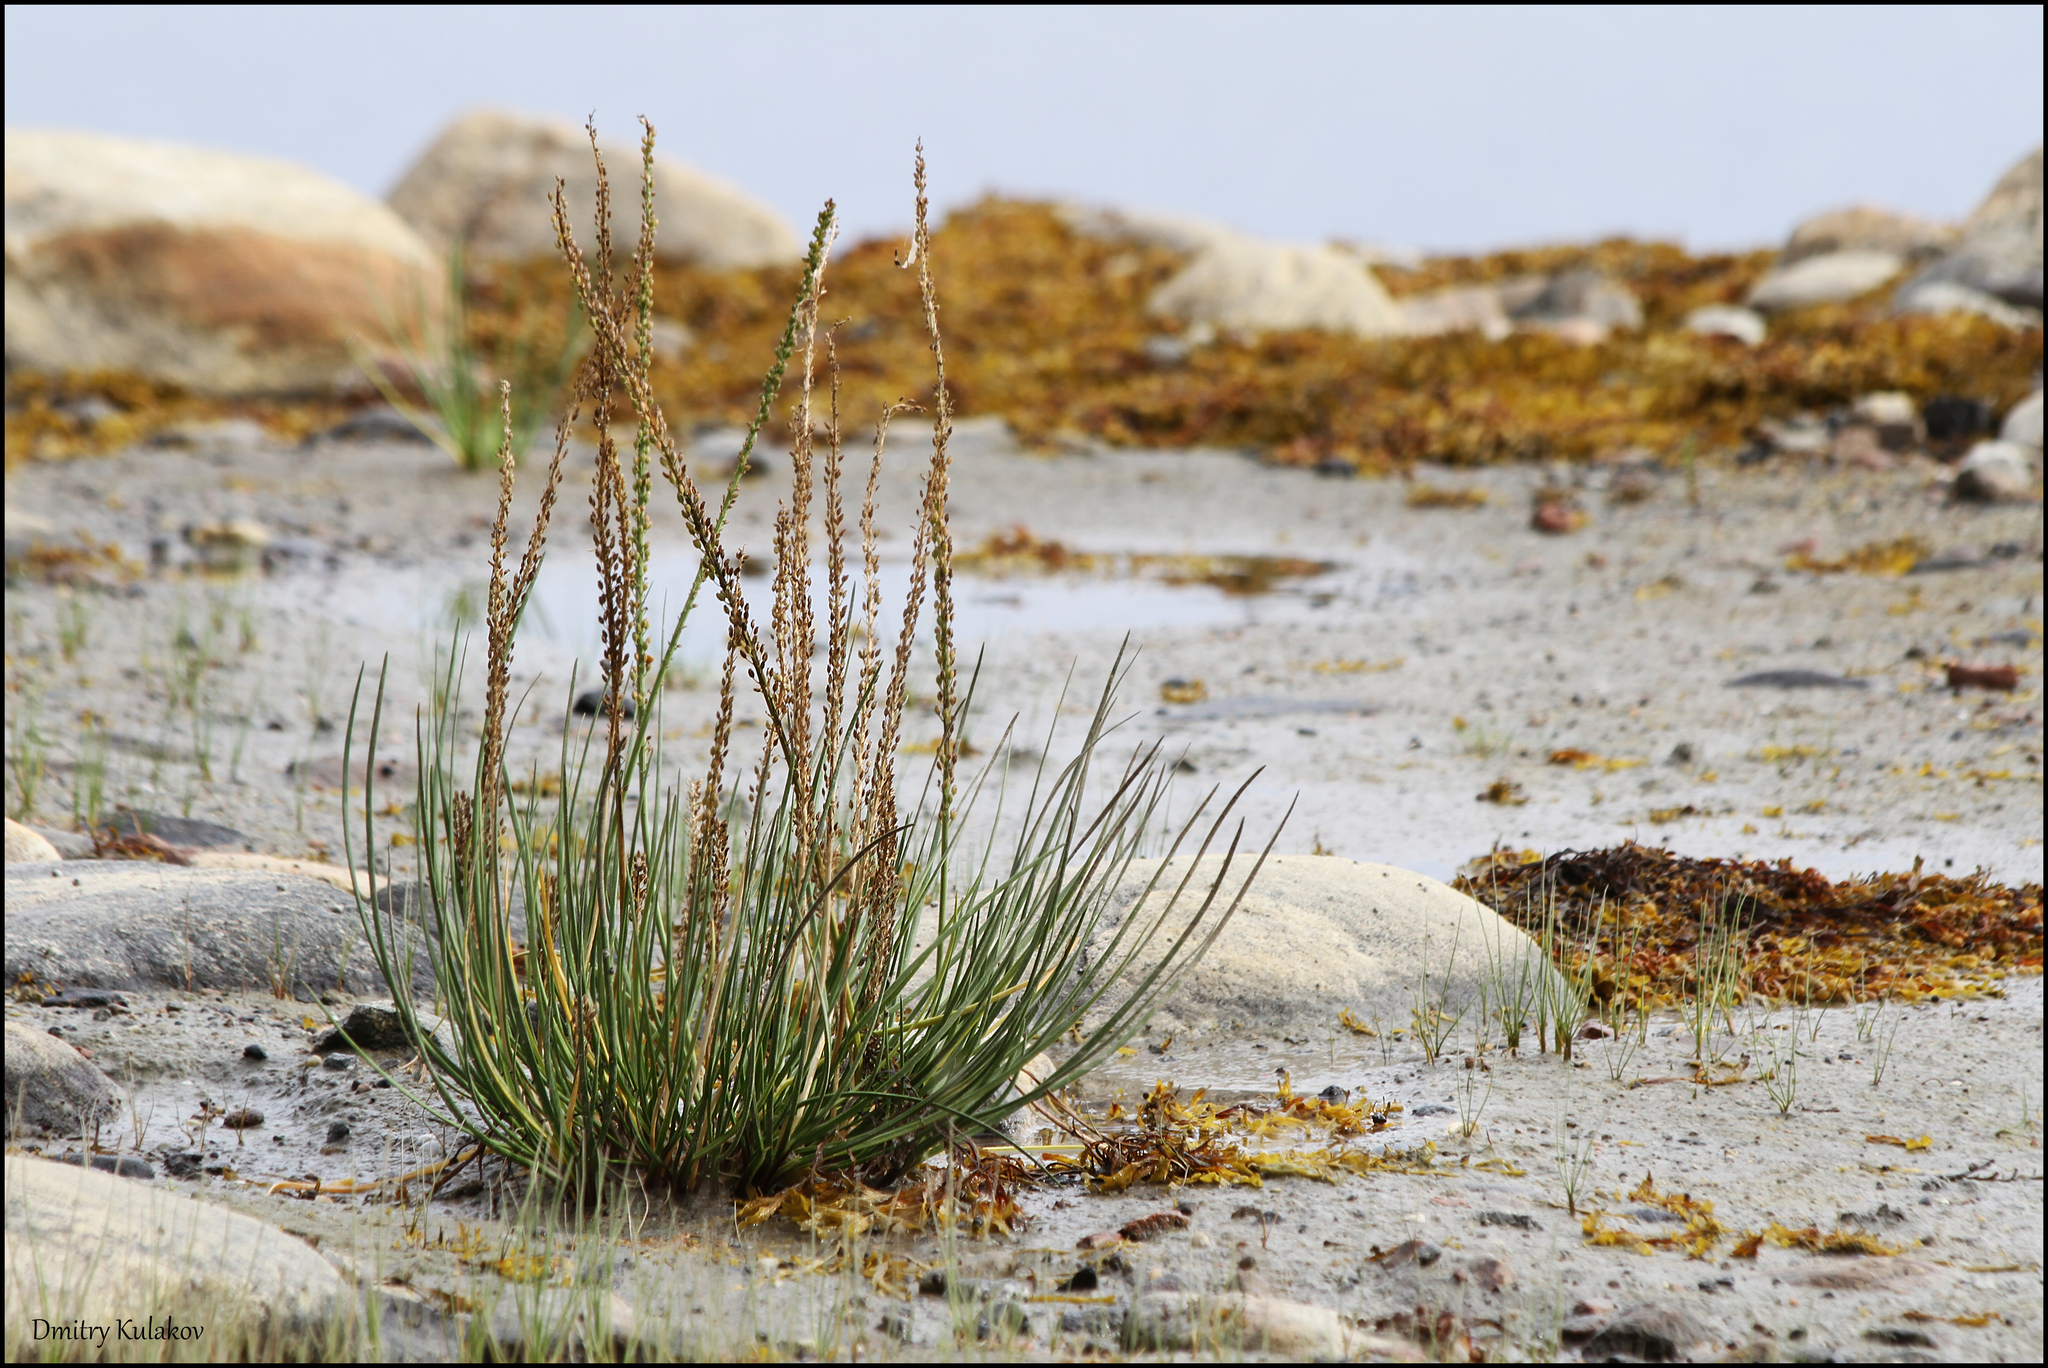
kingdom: Plantae
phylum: Tracheophyta
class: Liliopsida
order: Alismatales
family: Juncaginaceae
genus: Triglochin
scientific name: Triglochin maritima
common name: Sea arrowgrass
